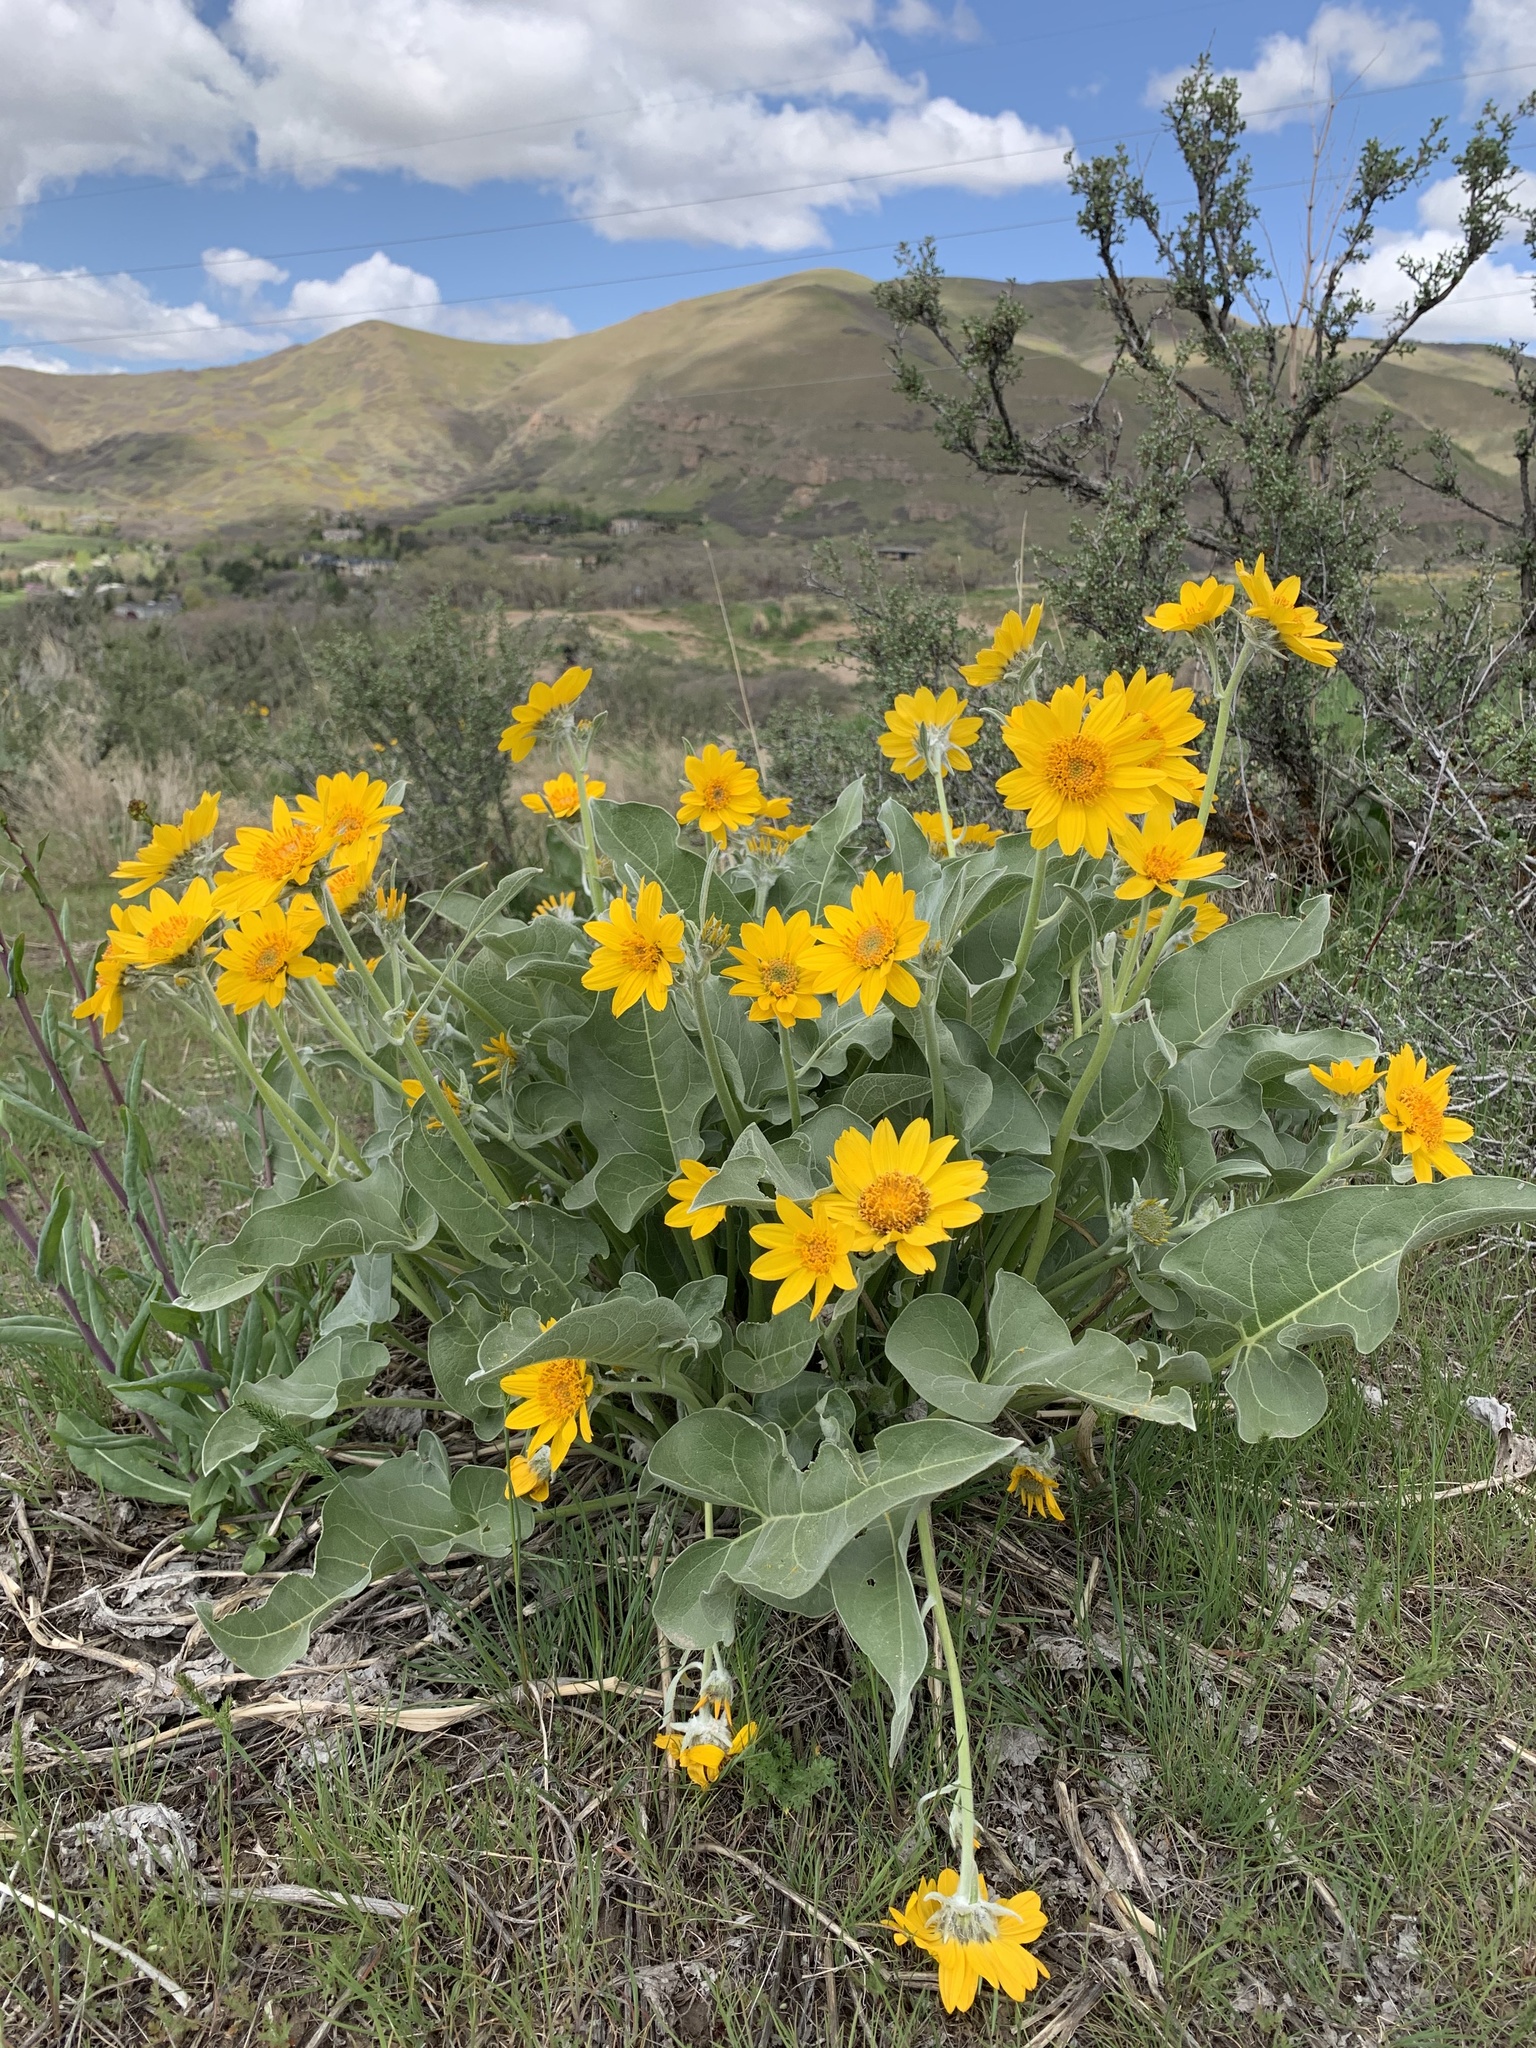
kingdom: Plantae
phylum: Tracheophyta
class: Magnoliopsida
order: Asterales
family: Asteraceae
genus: Wyethia
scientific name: Wyethia sagittata
